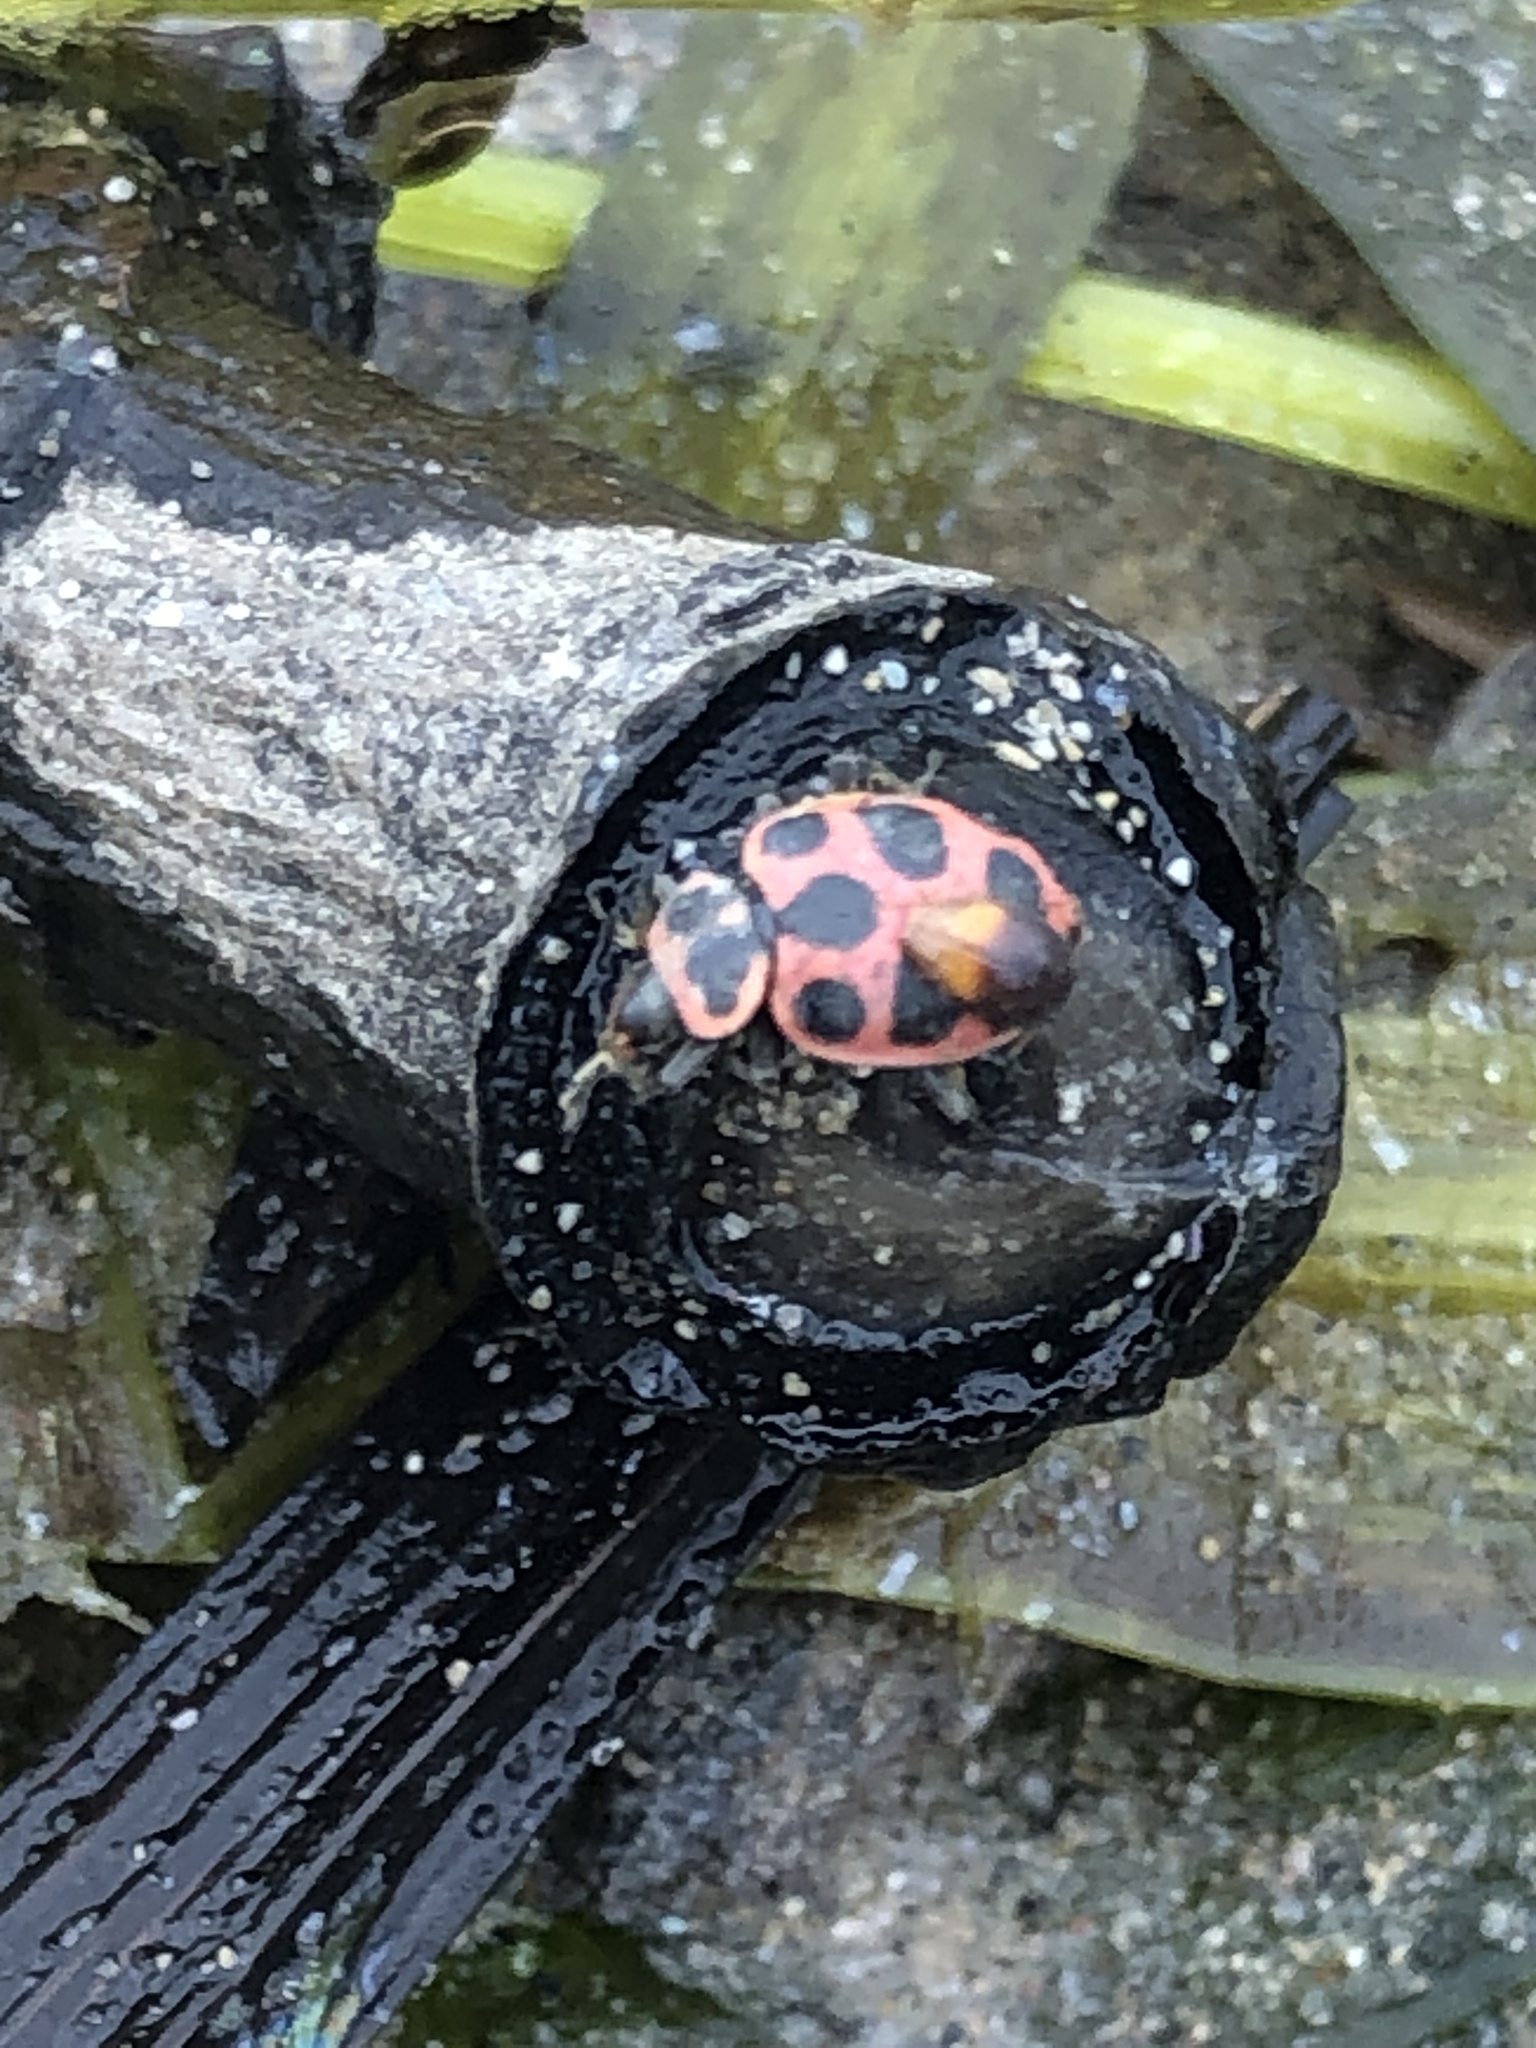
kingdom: Animalia
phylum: Arthropoda
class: Insecta
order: Coleoptera
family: Coccinellidae
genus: Coleomegilla
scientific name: Coleomegilla maculata
